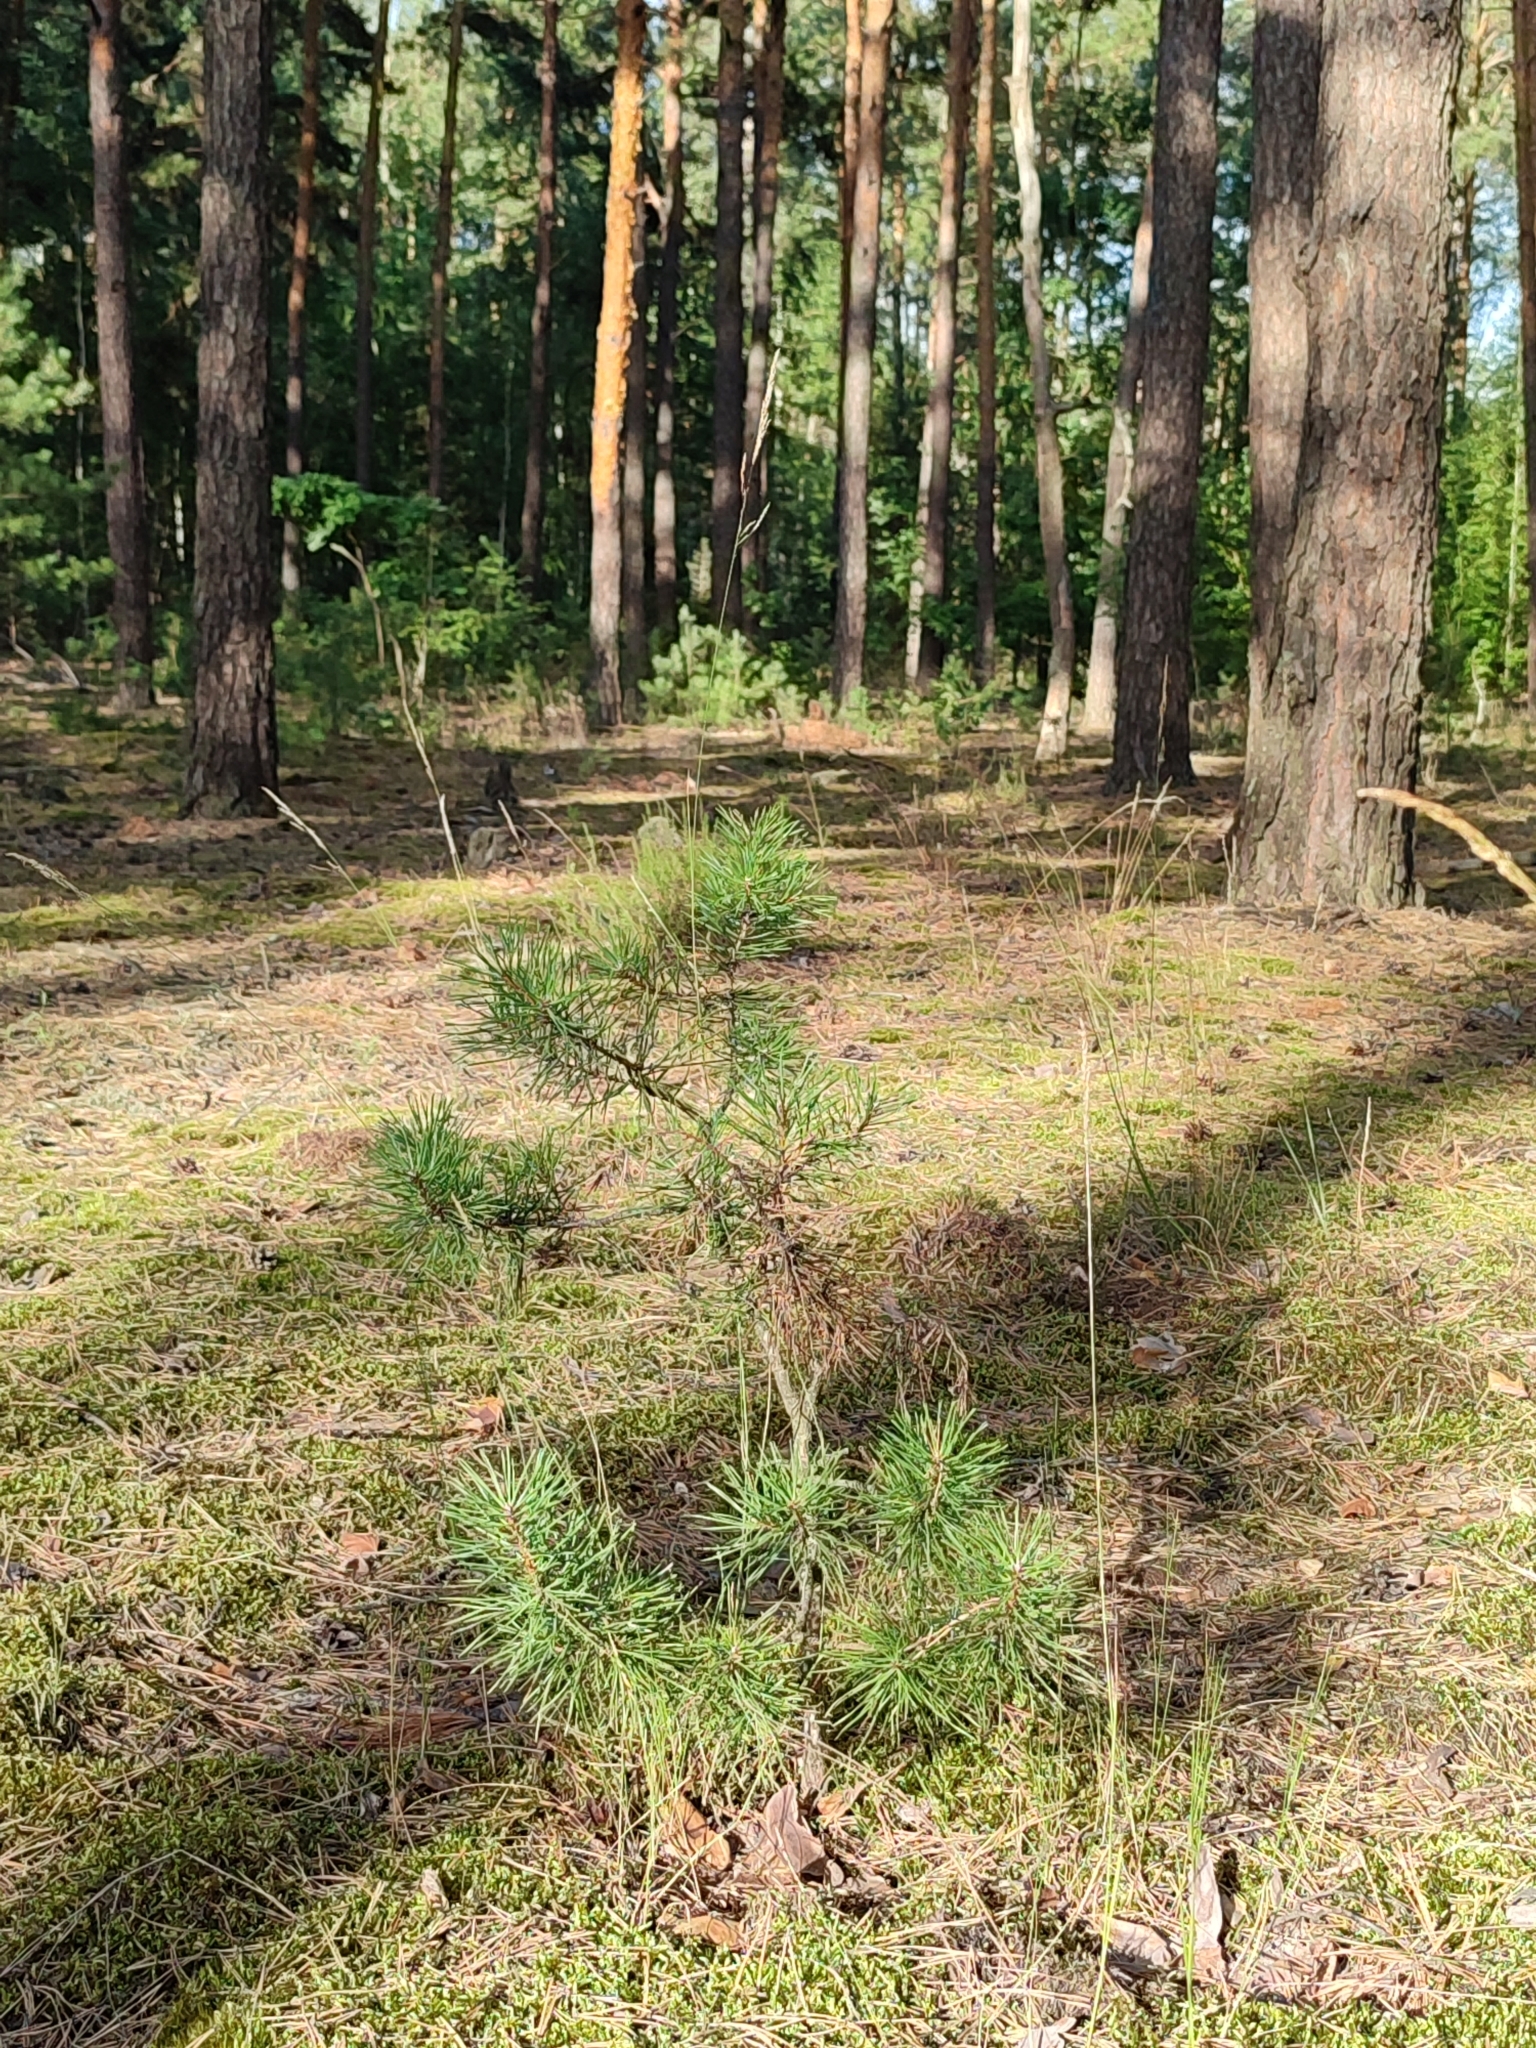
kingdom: Plantae
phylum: Tracheophyta
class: Pinopsida
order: Pinales
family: Pinaceae
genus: Pinus
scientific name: Pinus sylvestris
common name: Scots pine
